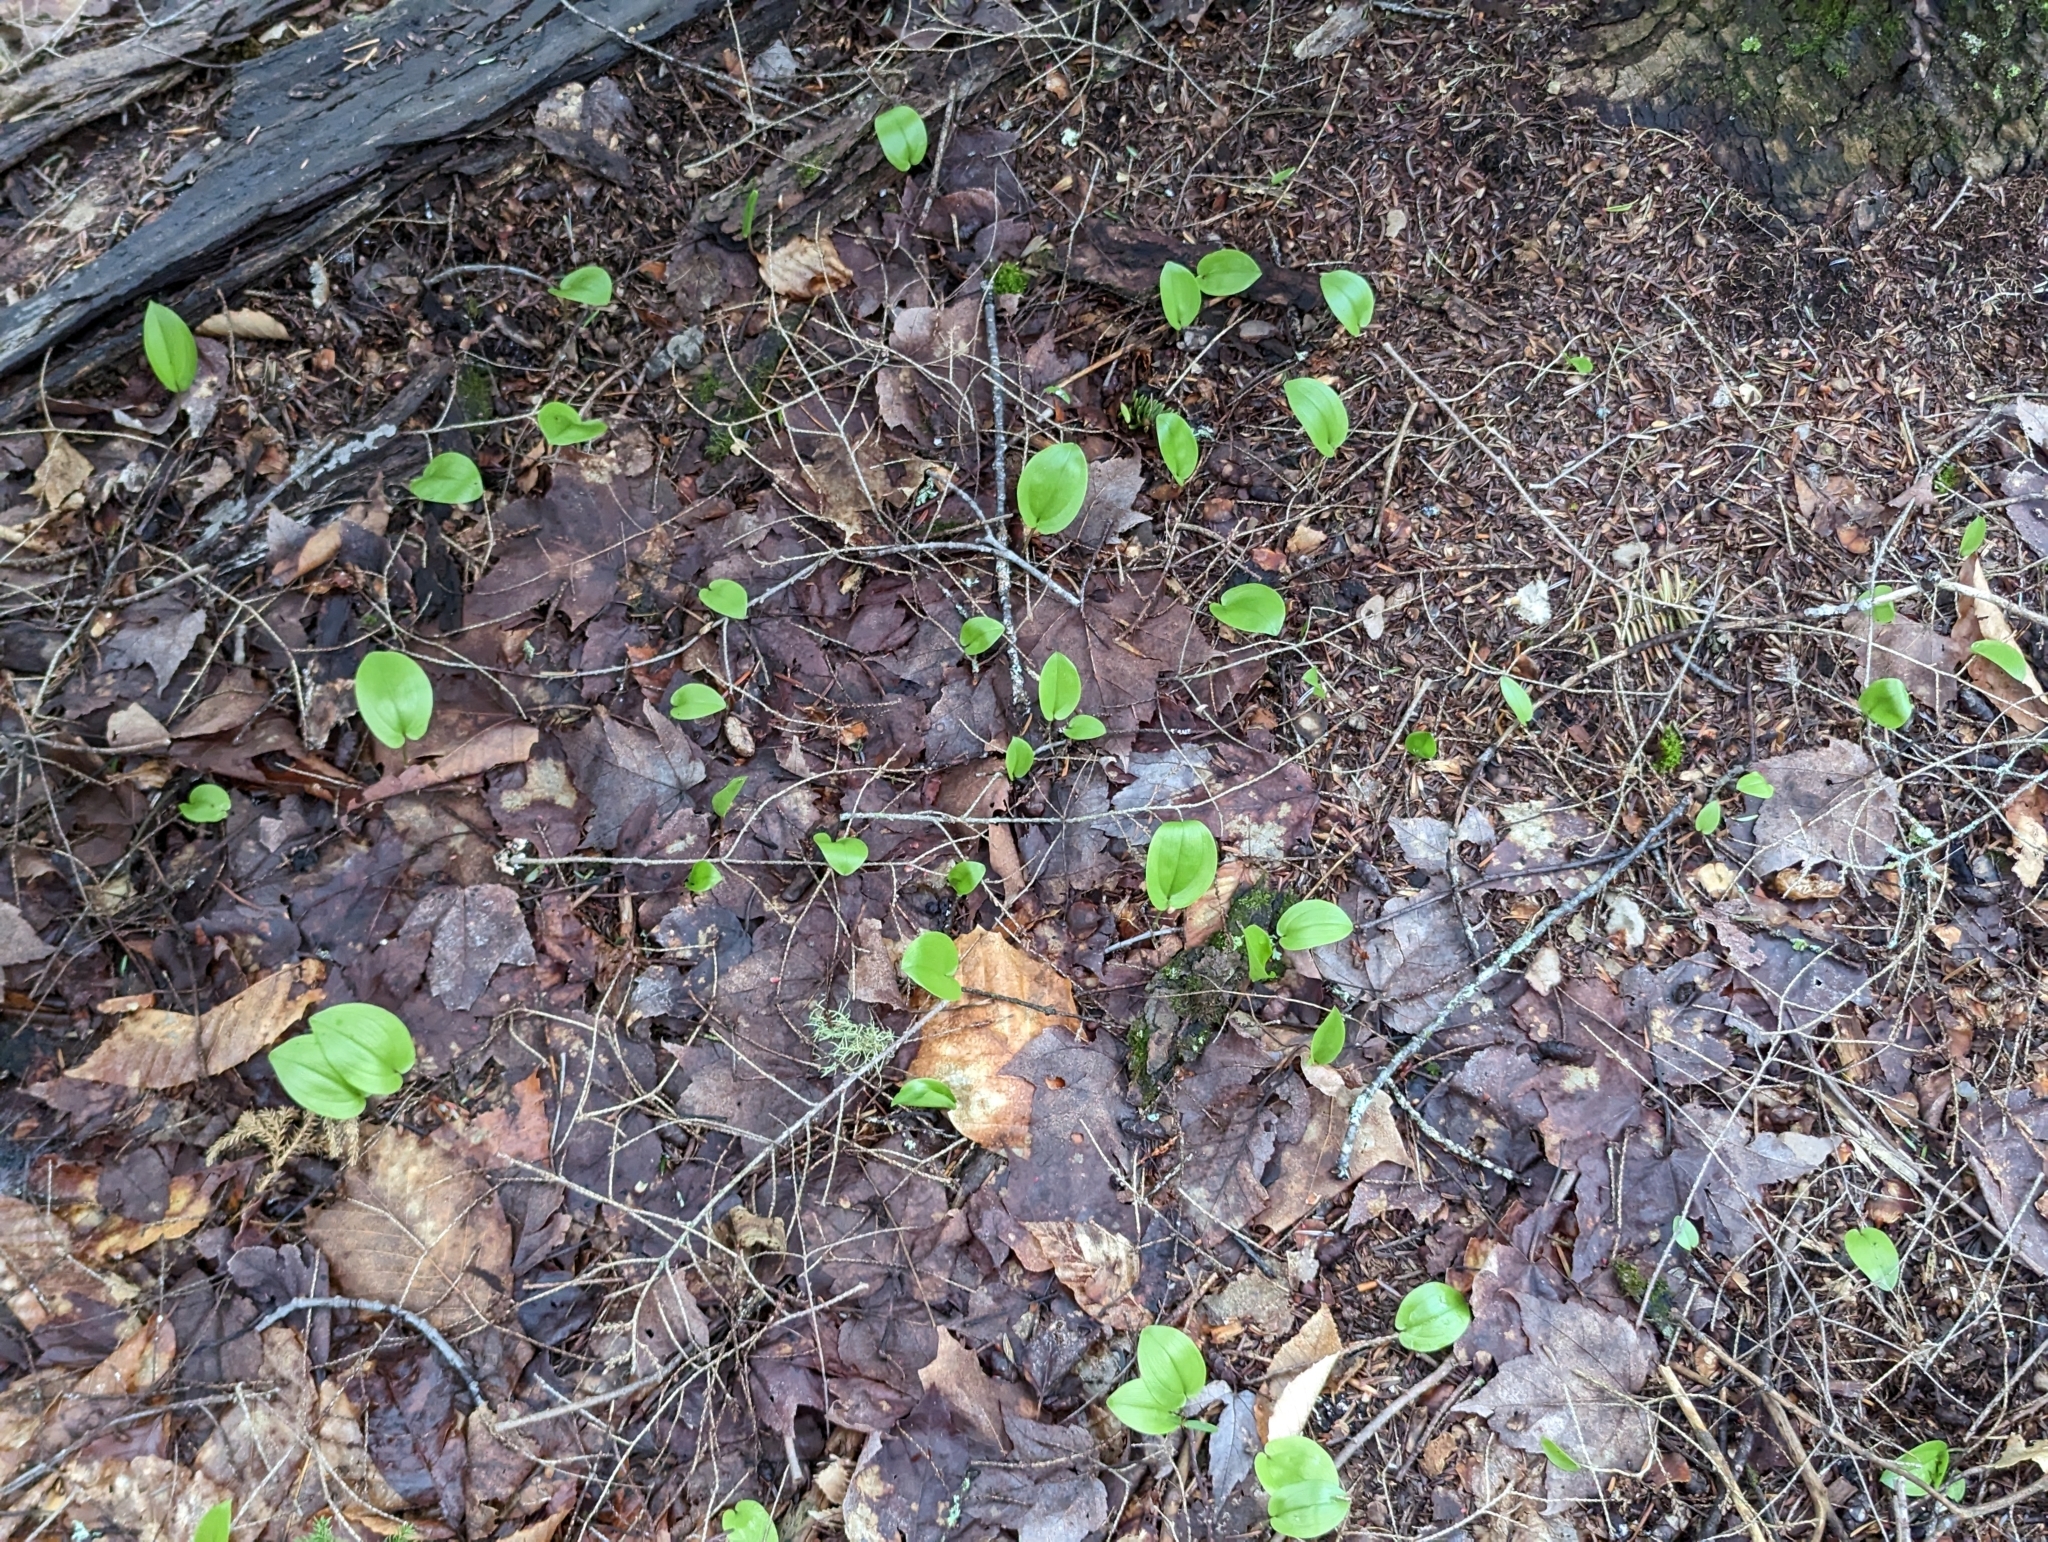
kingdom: Plantae
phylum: Tracheophyta
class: Liliopsida
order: Asparagales
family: Asparagaceae
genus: Maianthemum
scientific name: Maianthemum canadense
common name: False lily-of-the-valley
